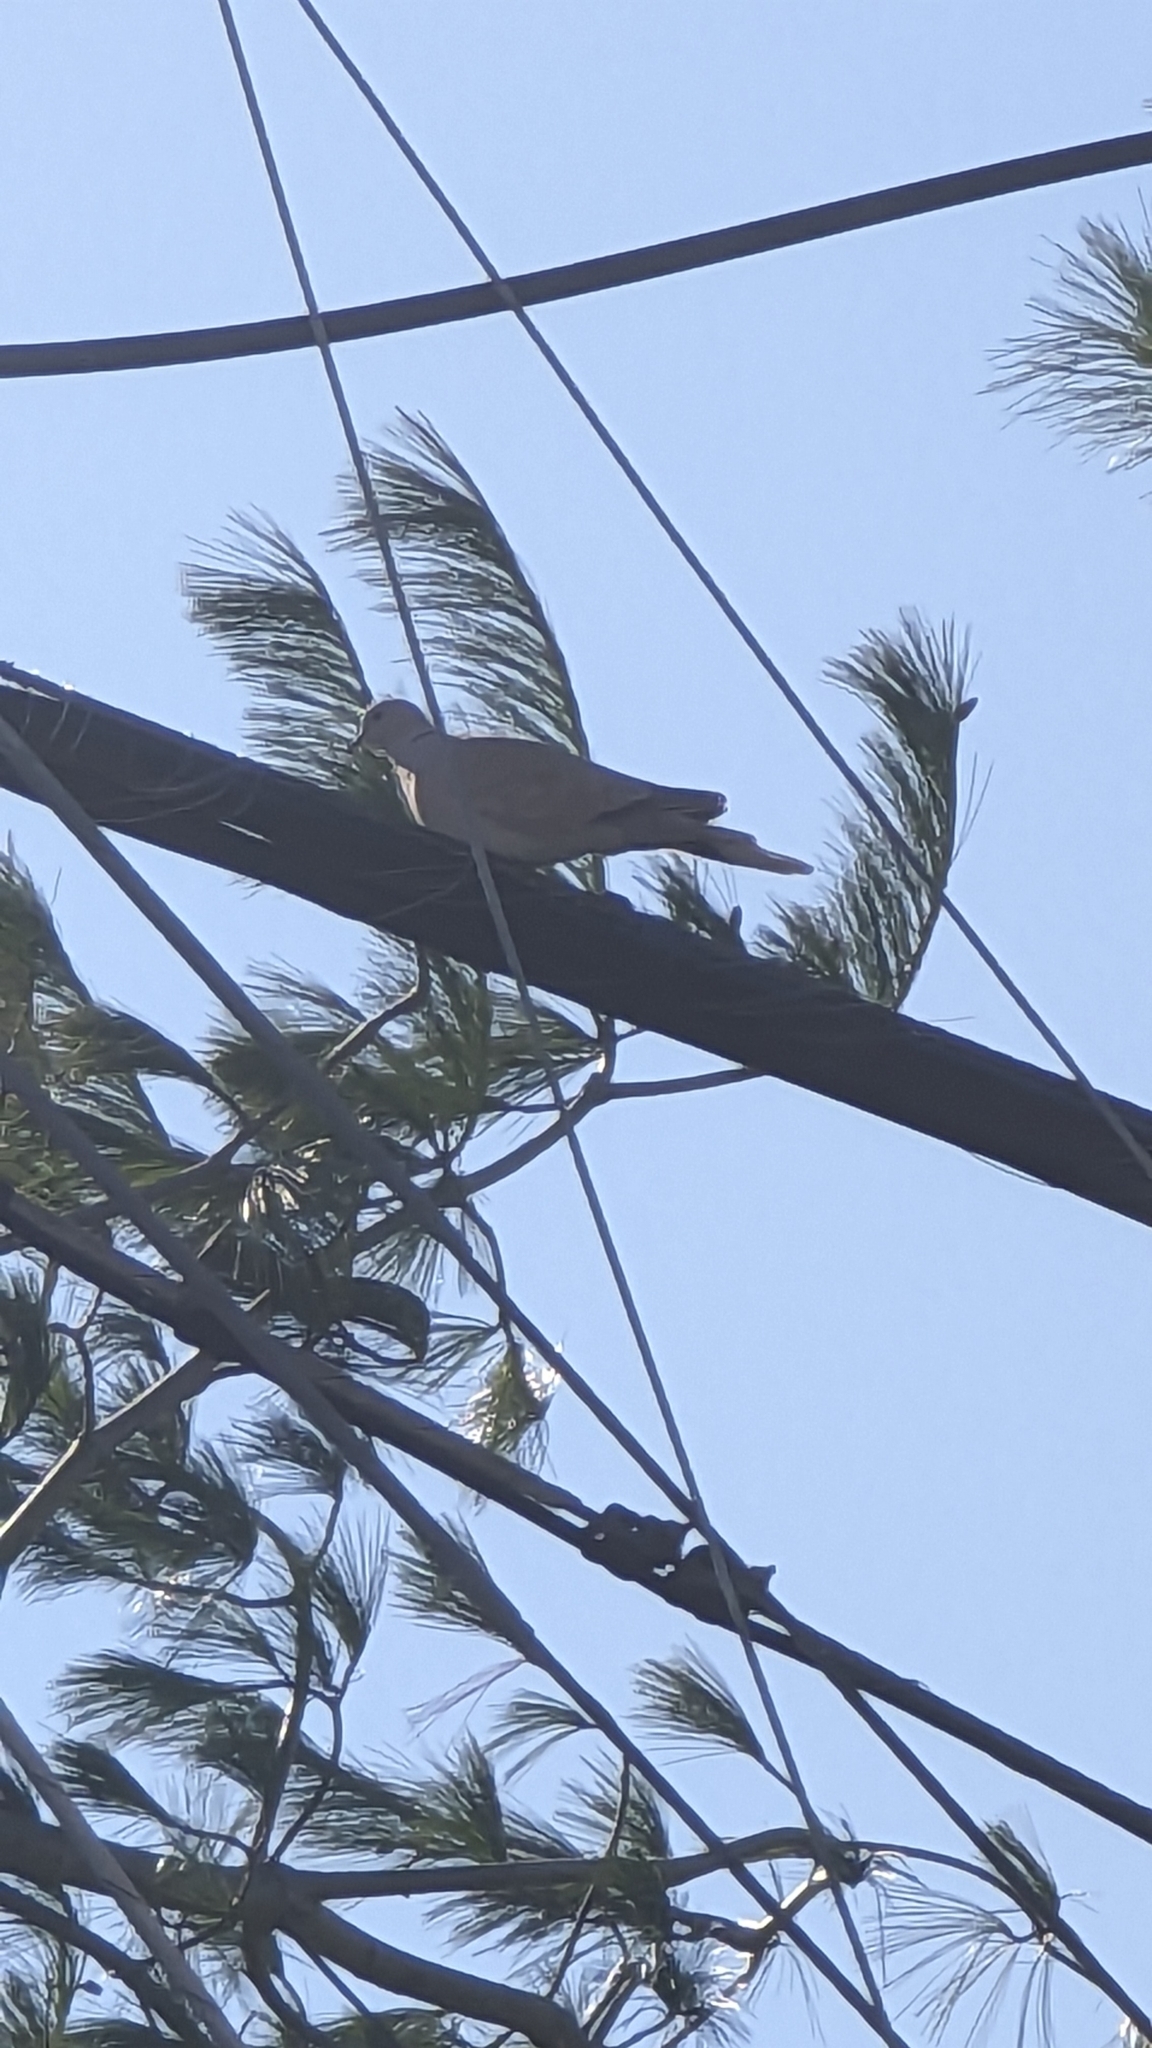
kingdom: Animalia
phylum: Chordata
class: Aves
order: Columbiformes
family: Columbidae
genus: Streptopelia
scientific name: Streptopelia decaocto
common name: Eurasian collared dove
